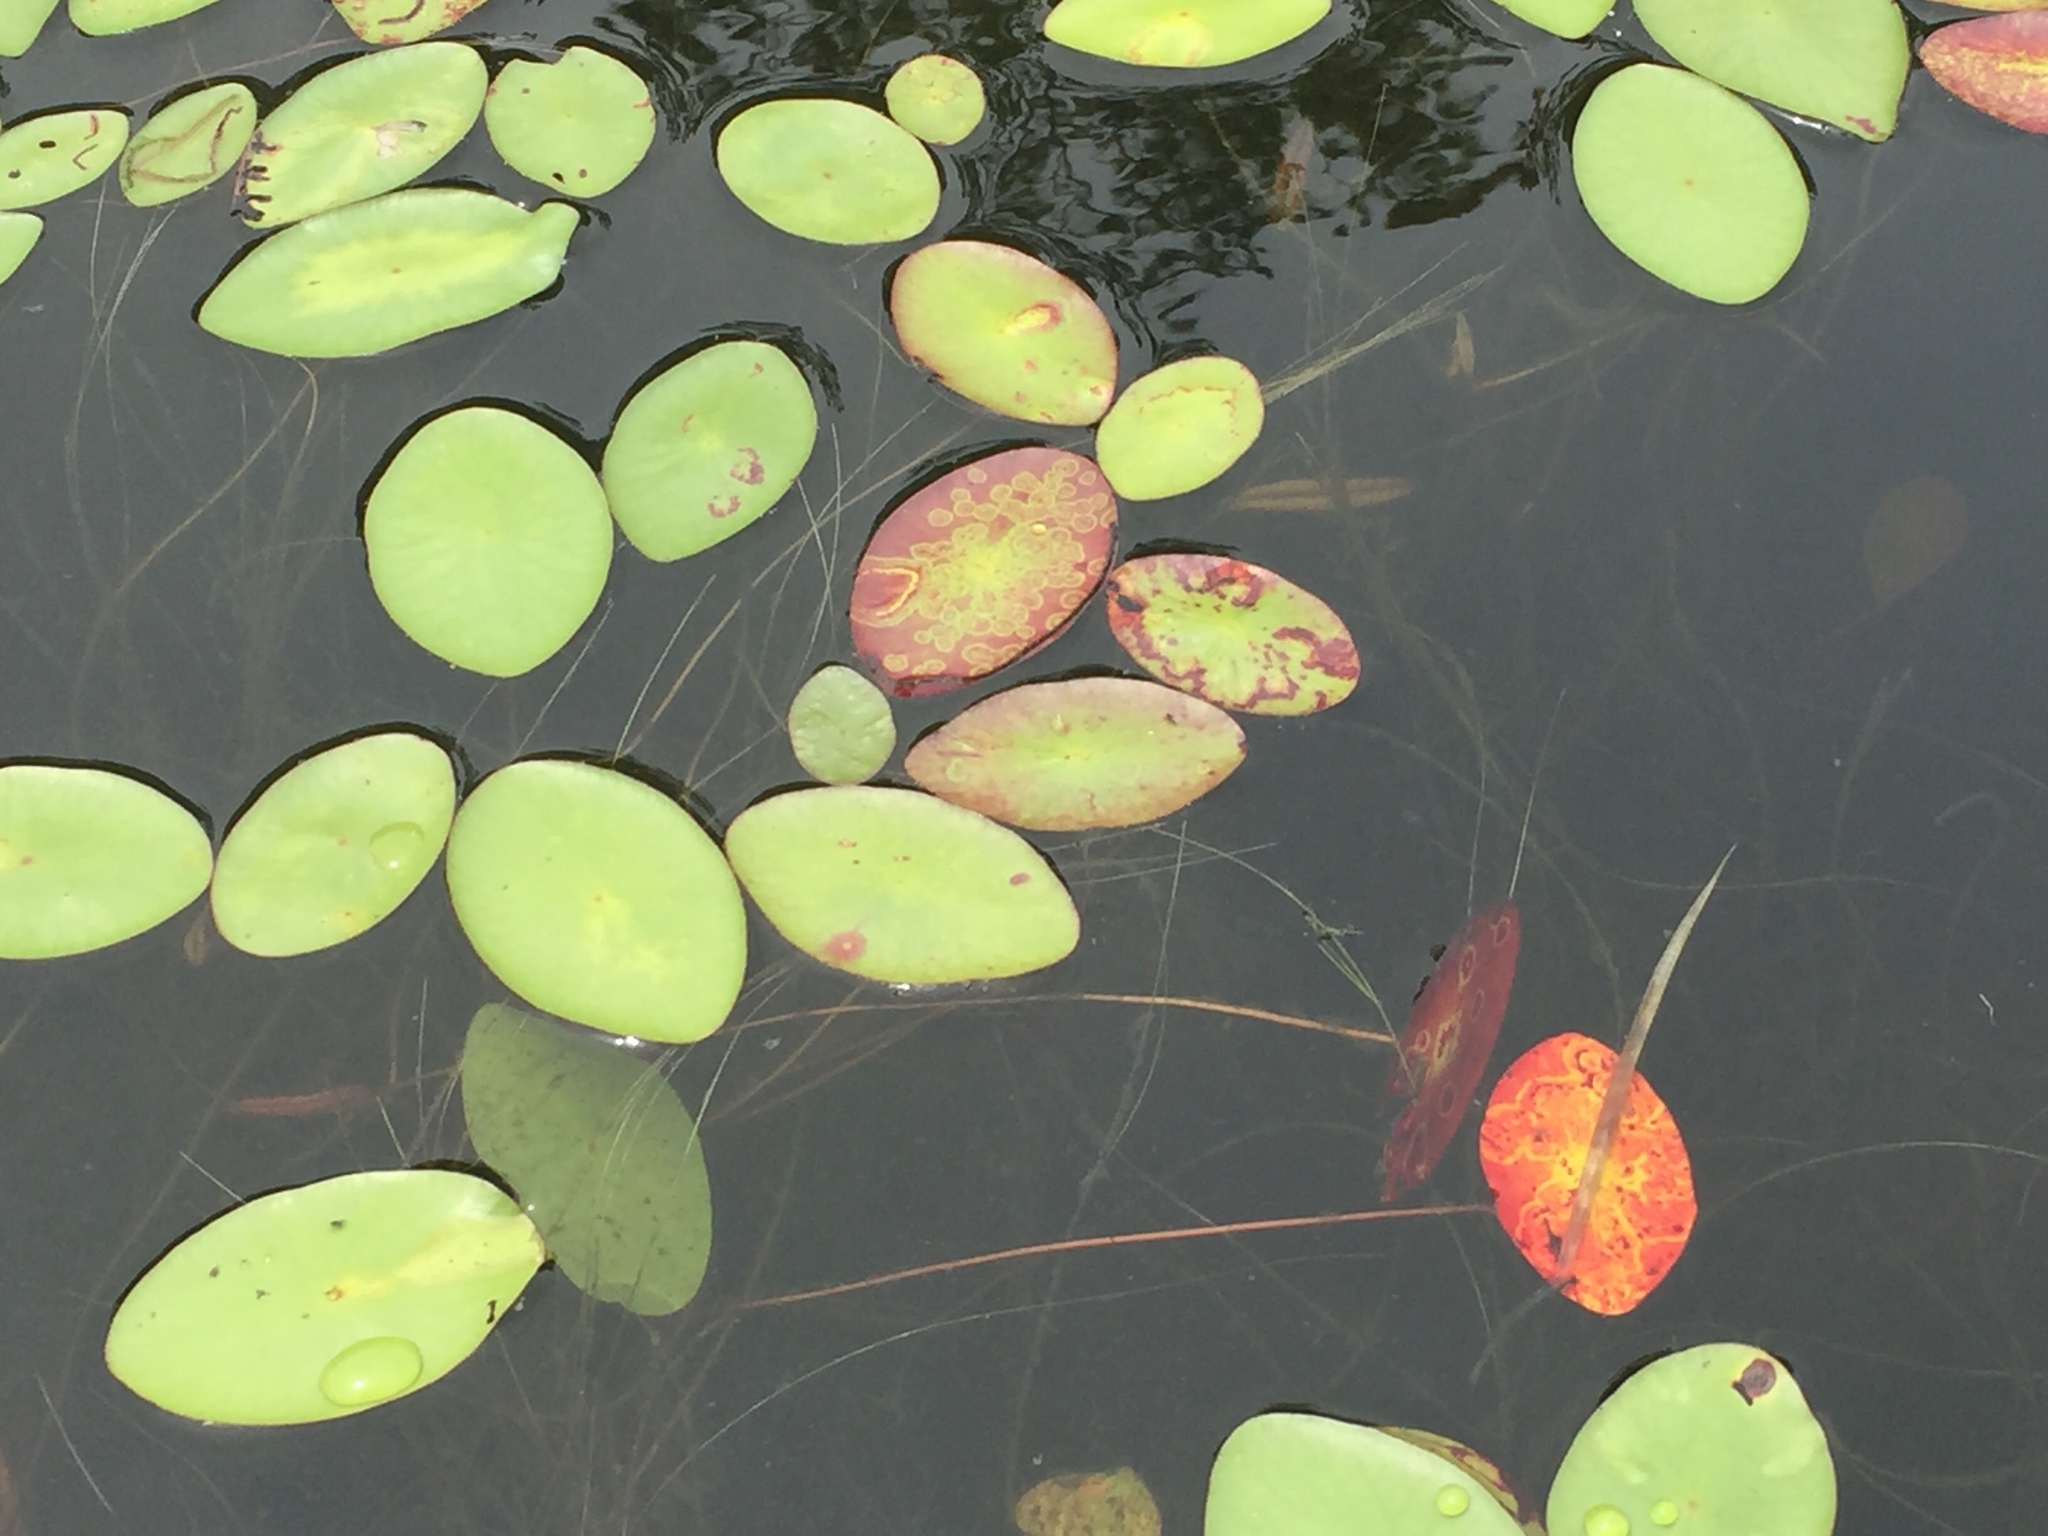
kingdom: Plantae
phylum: Tracheophyta
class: Magnoliopsida
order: Nymphaeales
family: Cabombaceae
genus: Brasenia
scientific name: Brasenia schreberi
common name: Water-shield
